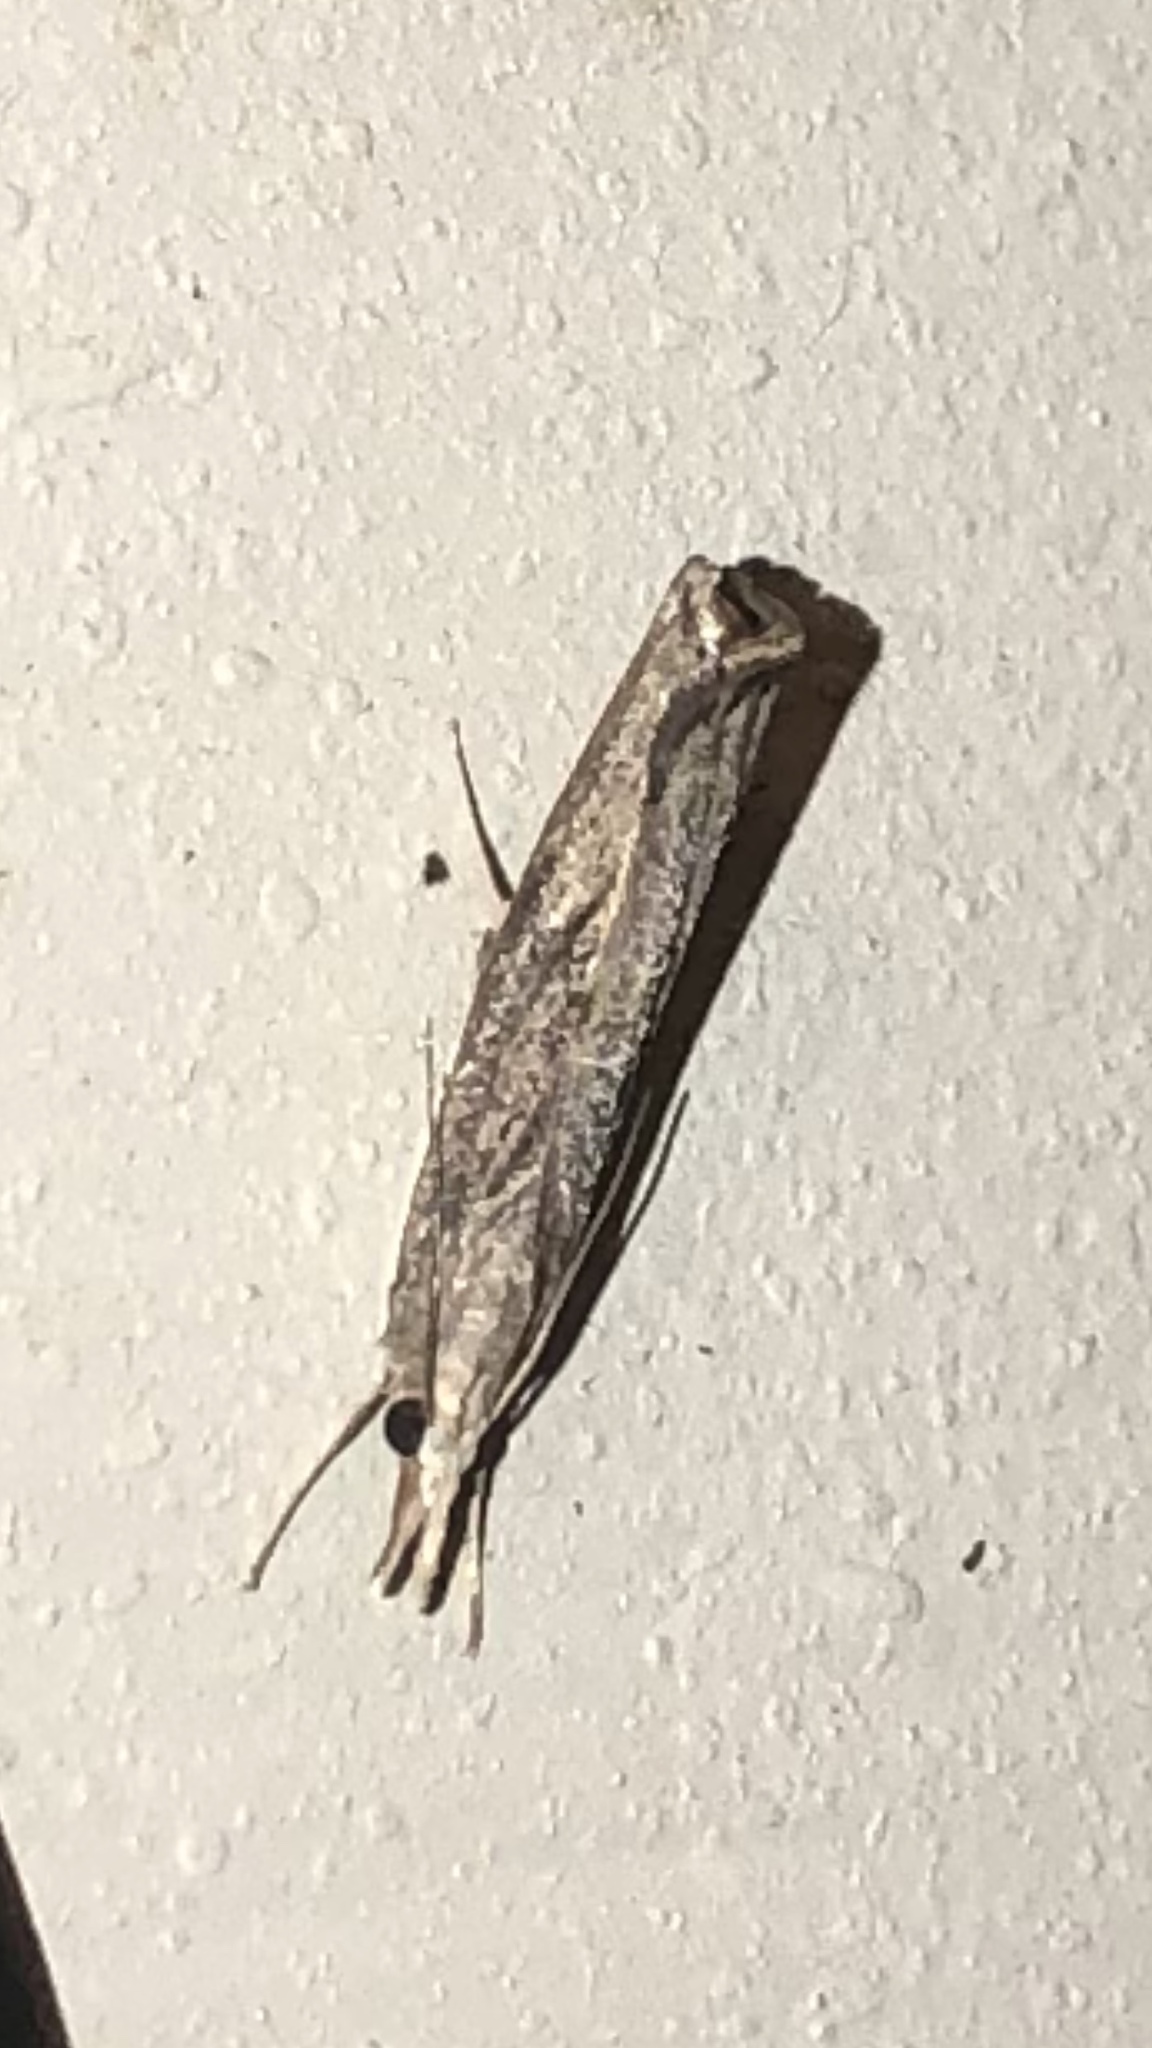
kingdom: Animalia
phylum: Arthropoda
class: Insecta
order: Lepidoptera
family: Crambidae
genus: Parapediasia
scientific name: Parapediasia teterellus
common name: Bluegrass webworm moth
